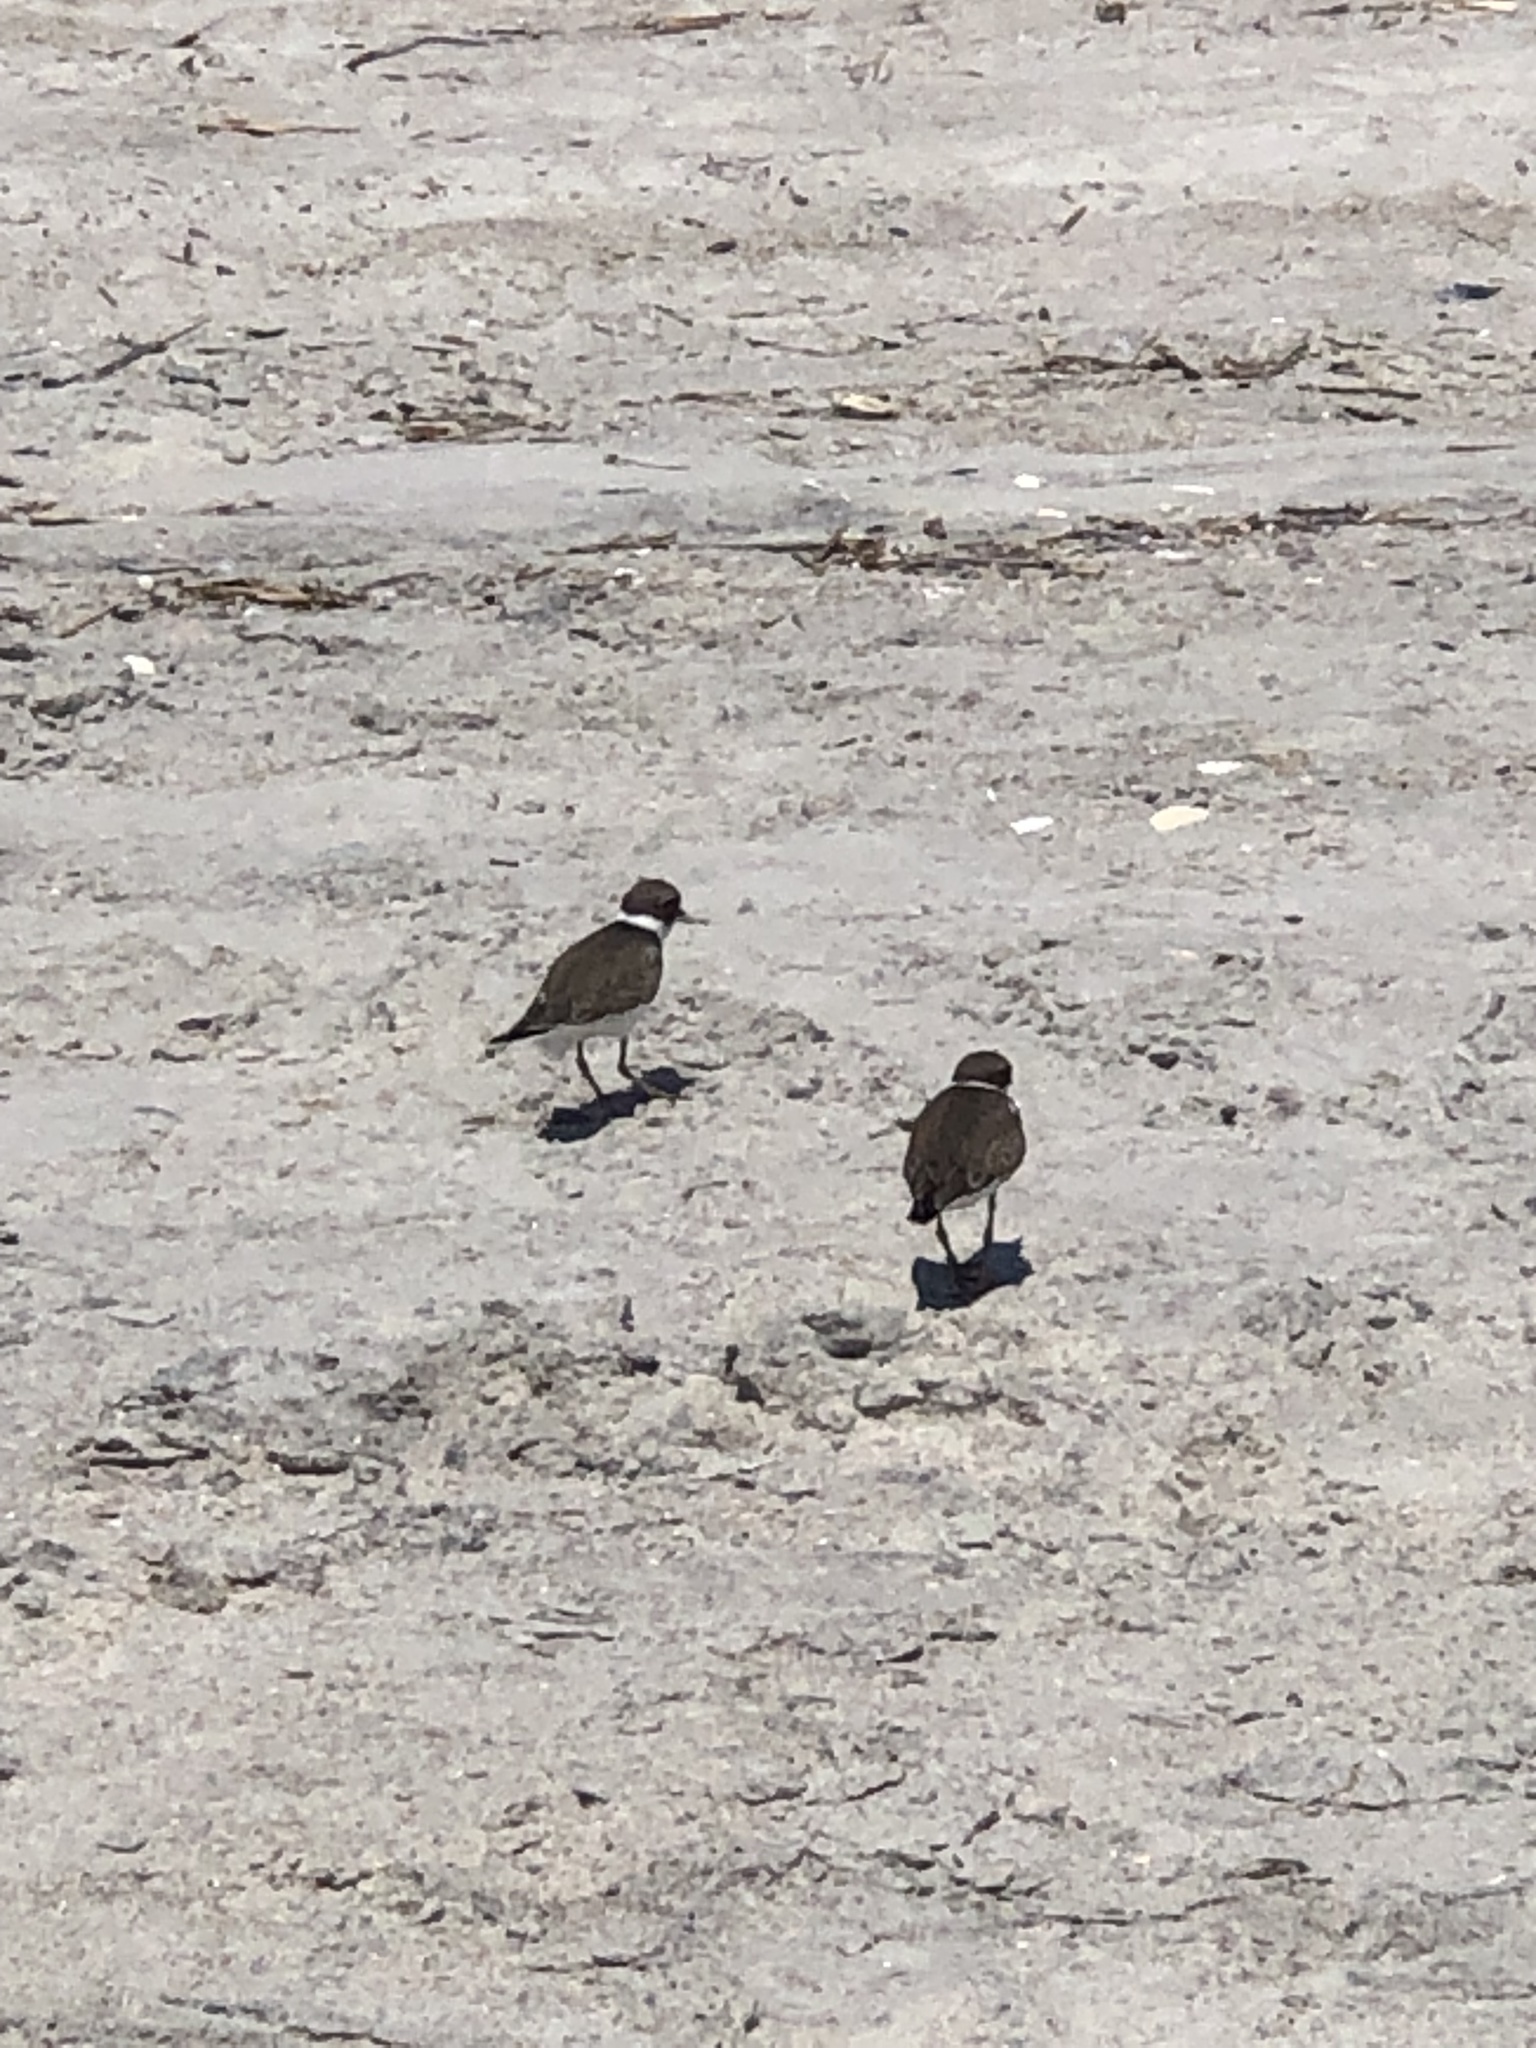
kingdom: Animalia
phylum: Chordata
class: Aves
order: Charadriiformes
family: Charadriidae
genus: Charadrius
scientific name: Charadrius semipalmatus
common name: Semipalmated plover
